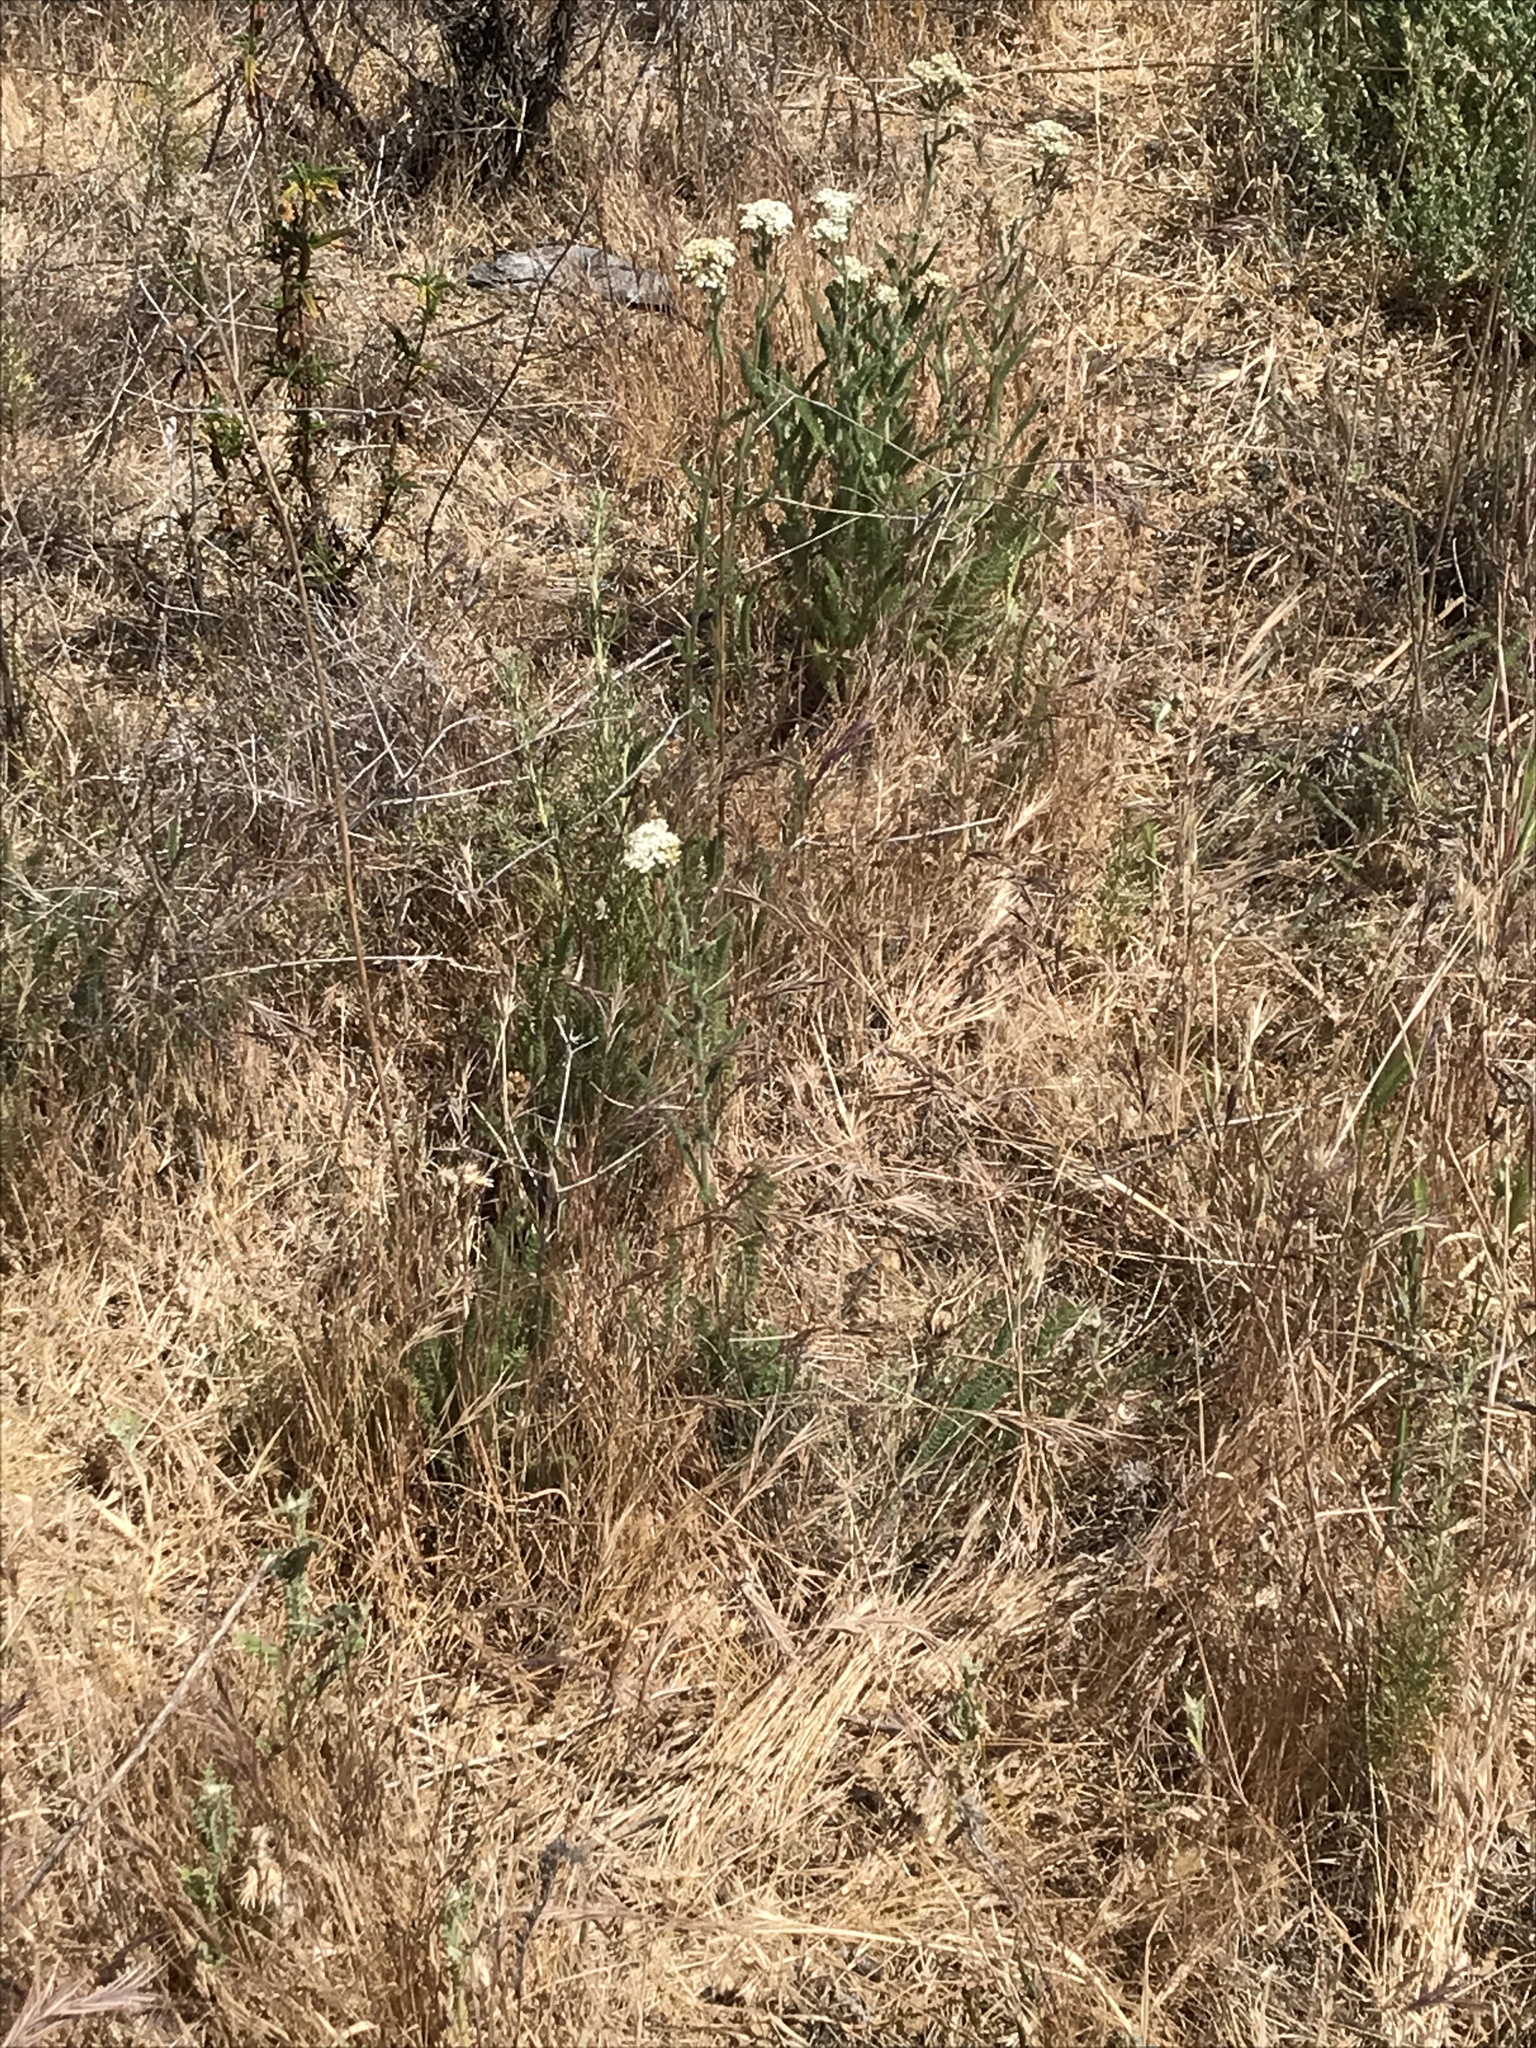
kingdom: Plantae
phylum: Tracheophyta
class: Magnoliopsida
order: Asterales
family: Asteraceae
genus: Achillea
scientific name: Achillea millefolium
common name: Yarrow
